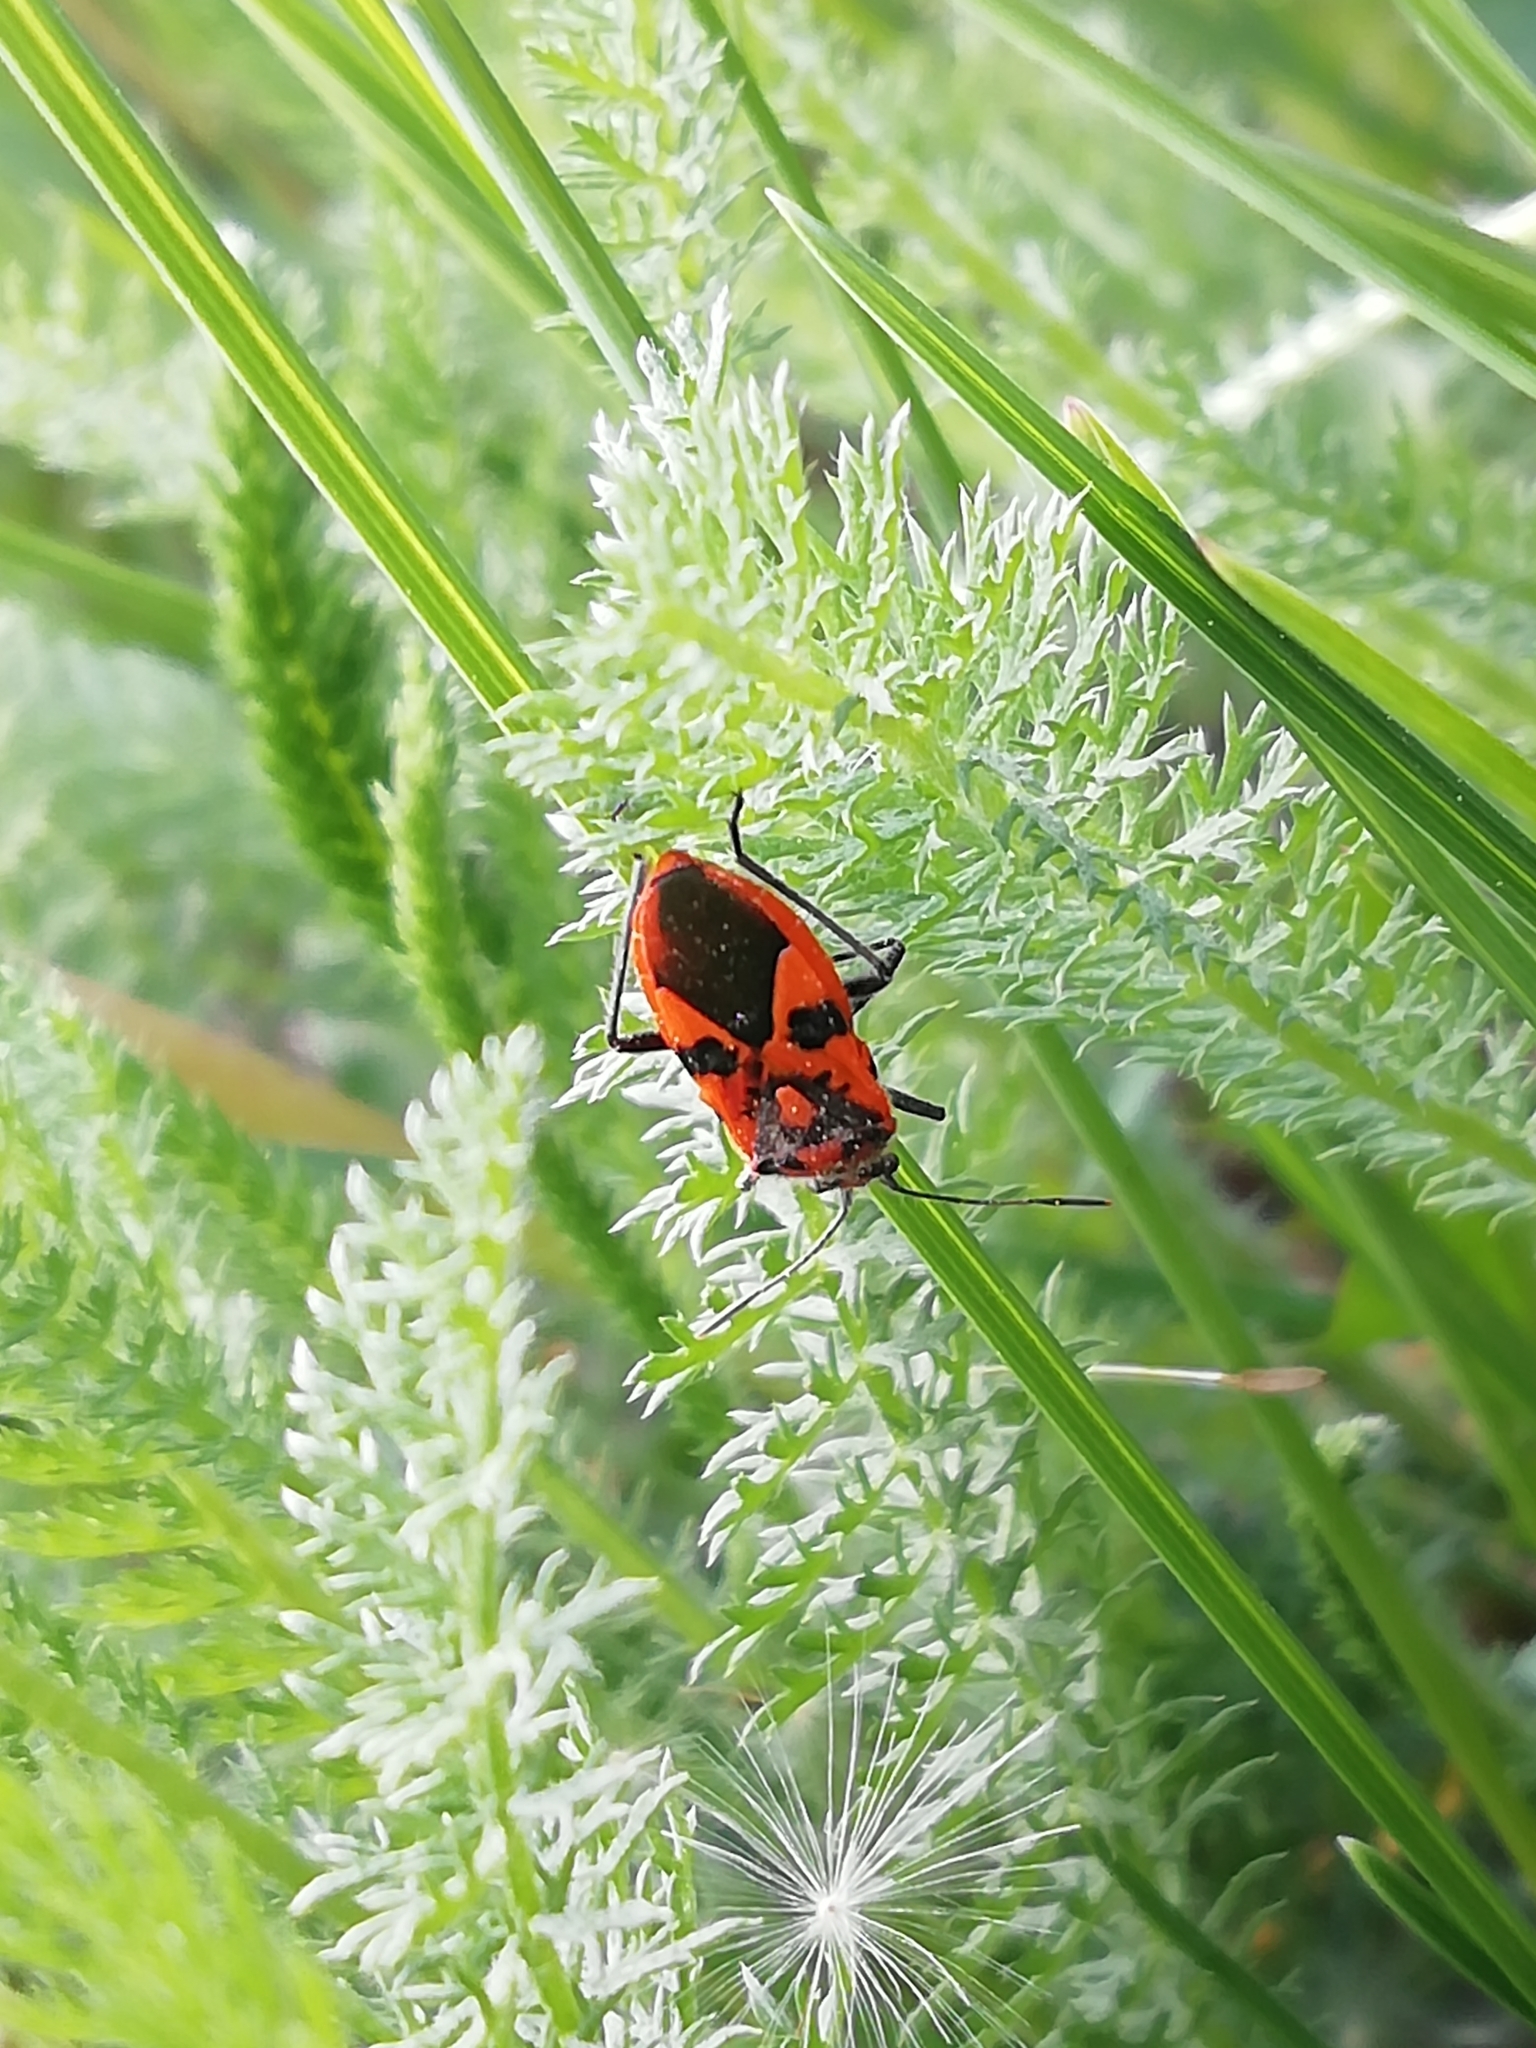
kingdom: Animalia
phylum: Arthropoda
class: Insecta
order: Hemiptera
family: Rhopalidae
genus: Corizus
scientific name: Corizus hyoscyami
